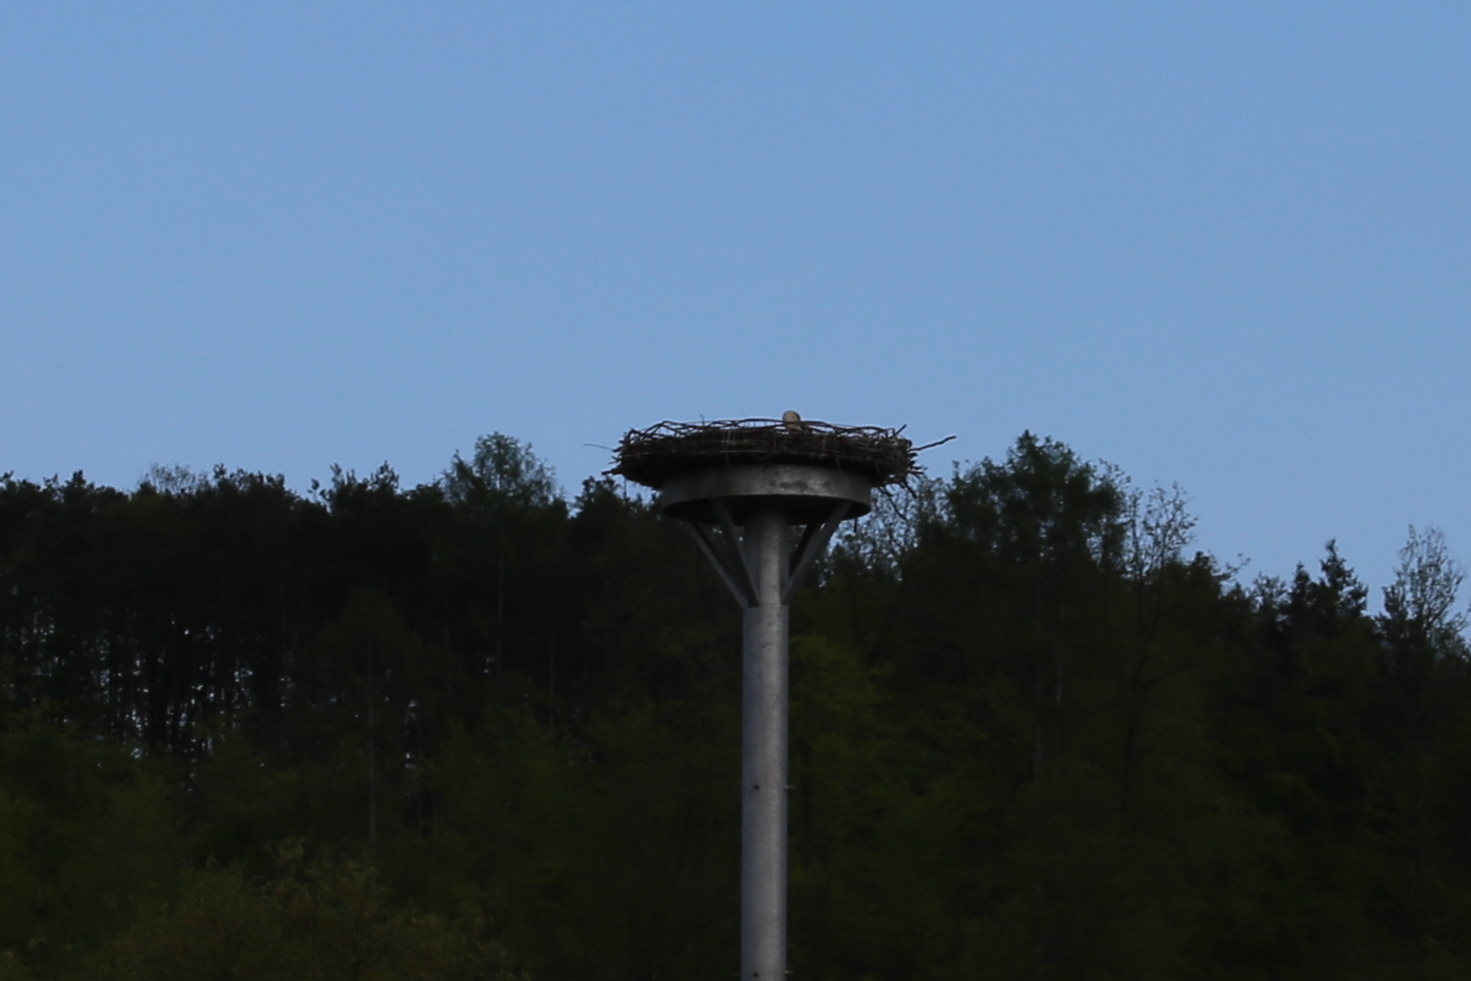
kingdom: Animalia
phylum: Chordata
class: Aves
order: Ciconiiformes
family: Ciconiidae
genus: Ciconia
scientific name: Ciconia ciconia
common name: White stork
